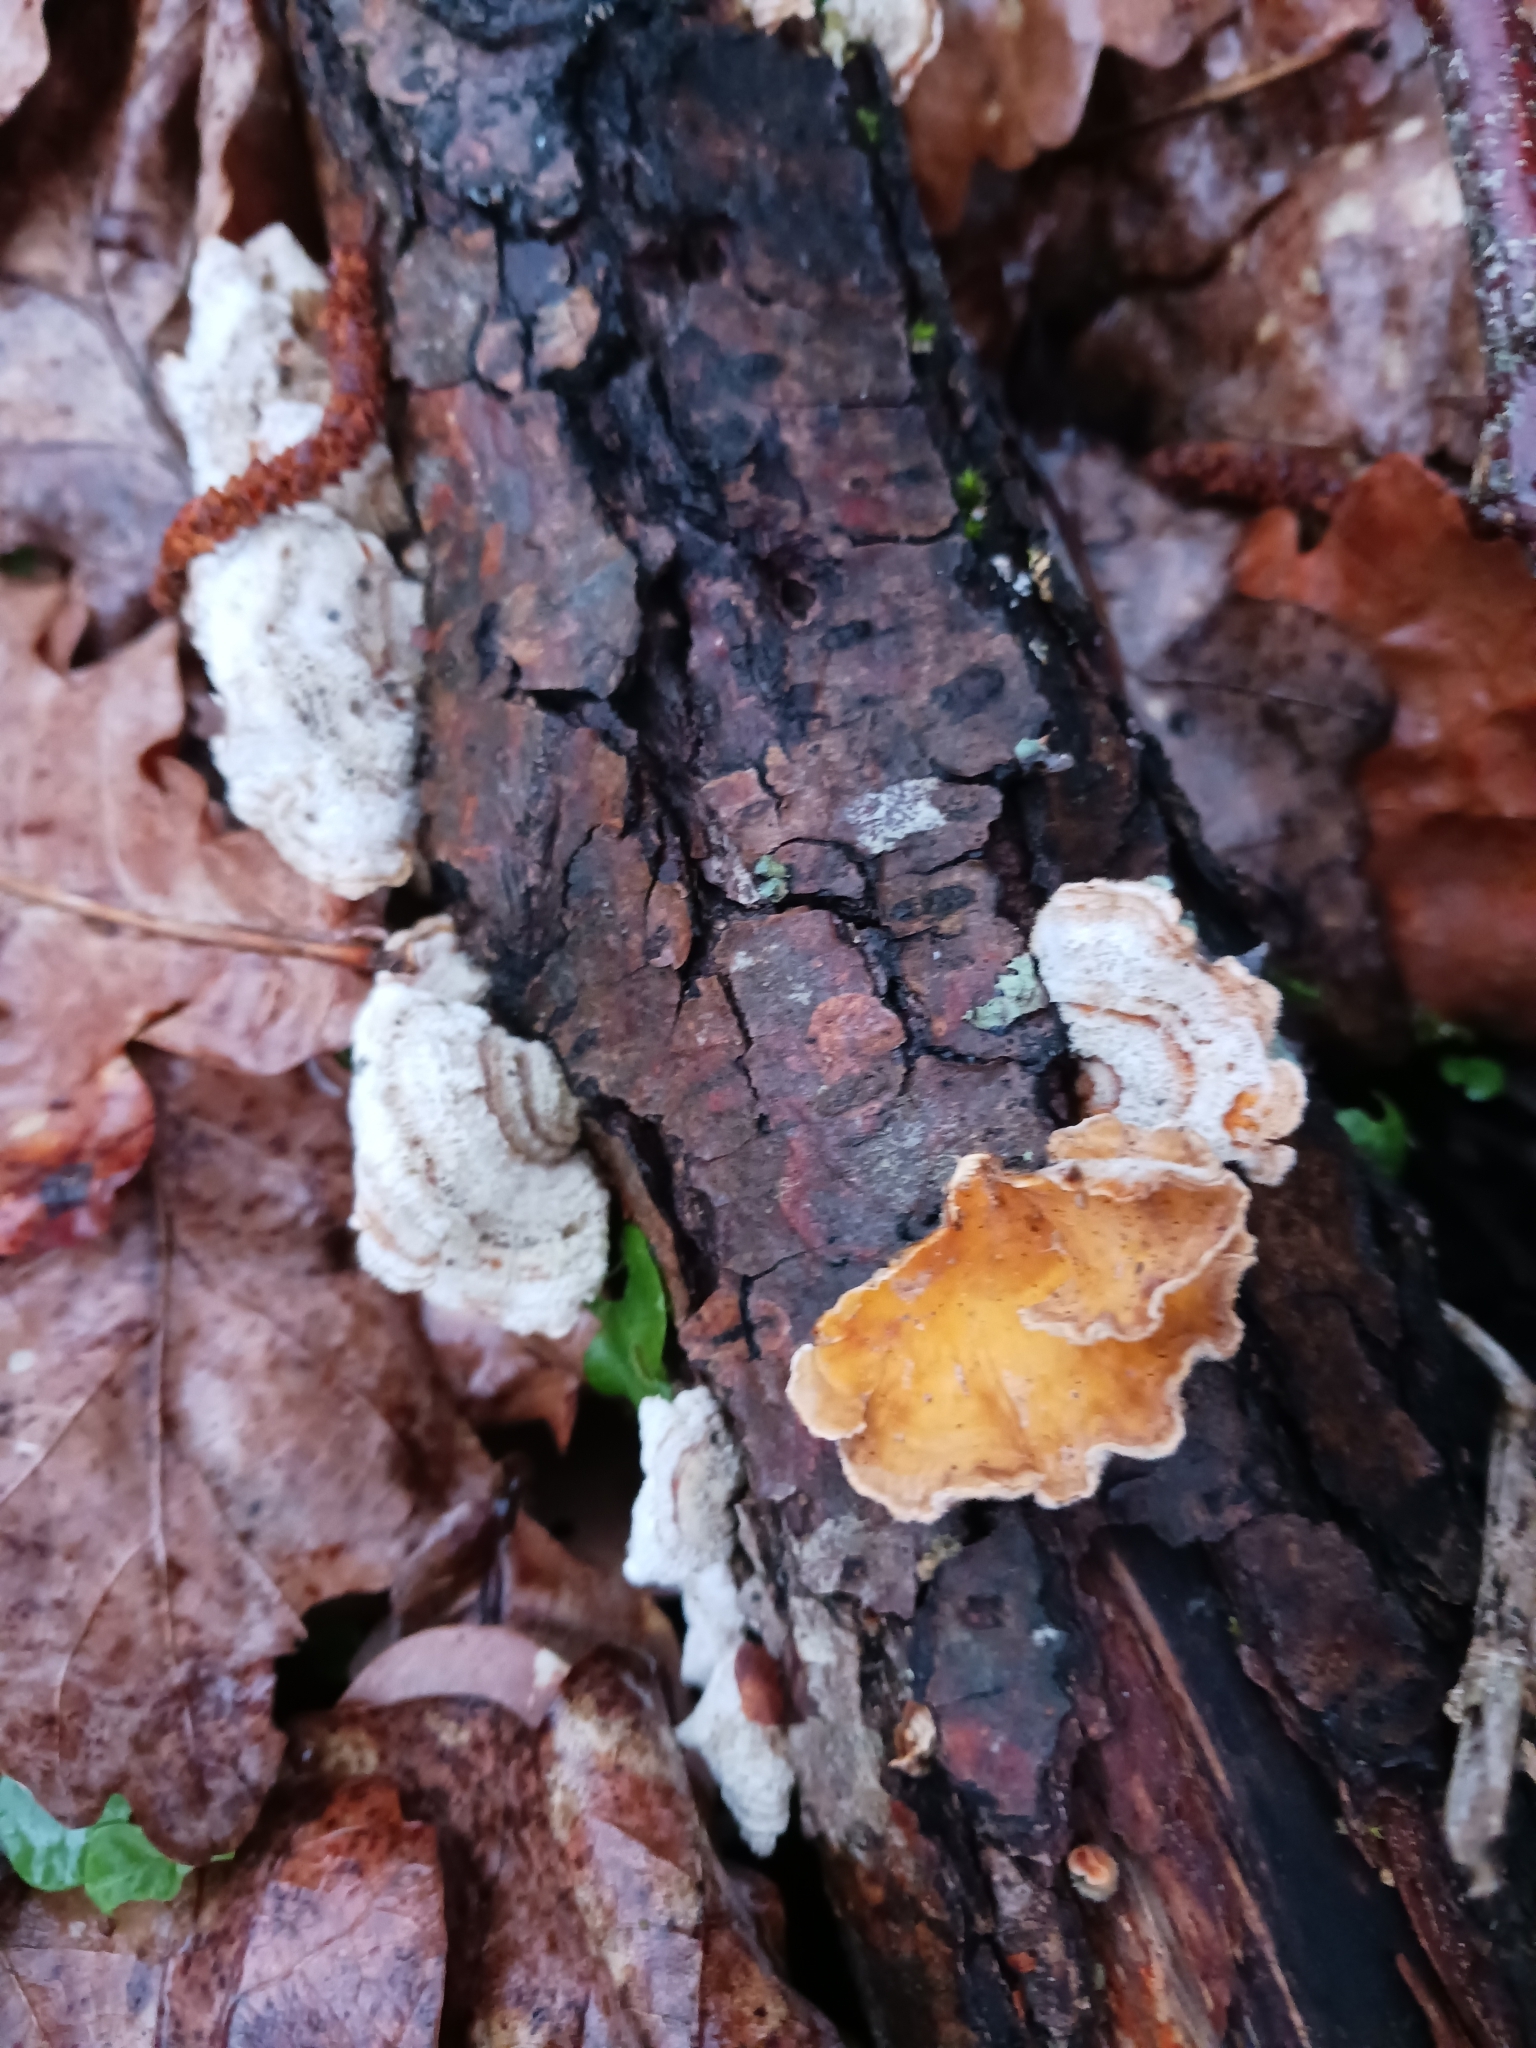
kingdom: Fungi
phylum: Basidiomycota
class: Agaricomycetes
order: Russulales
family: Stereaceae
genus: Stereum
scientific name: Stereum hirsutum
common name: Hairy curtain crust
